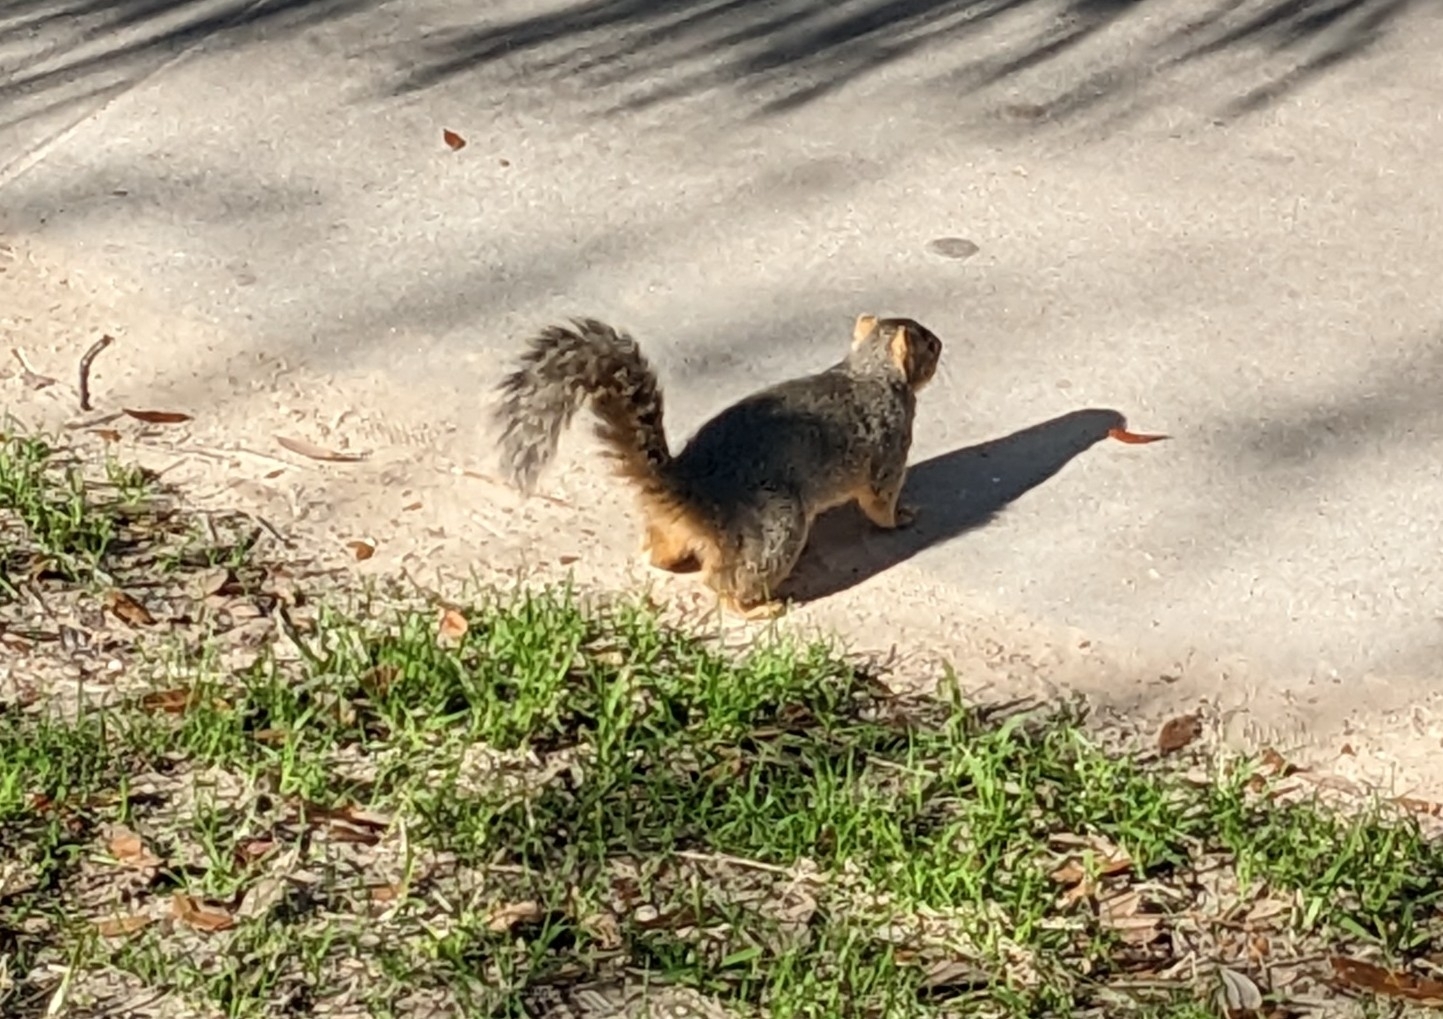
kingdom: Animalia
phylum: Chordata
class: Mammalia
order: Rodentia
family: Sciuridae
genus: Sciurus
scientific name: Sciurus niger
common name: Fox squirrel
